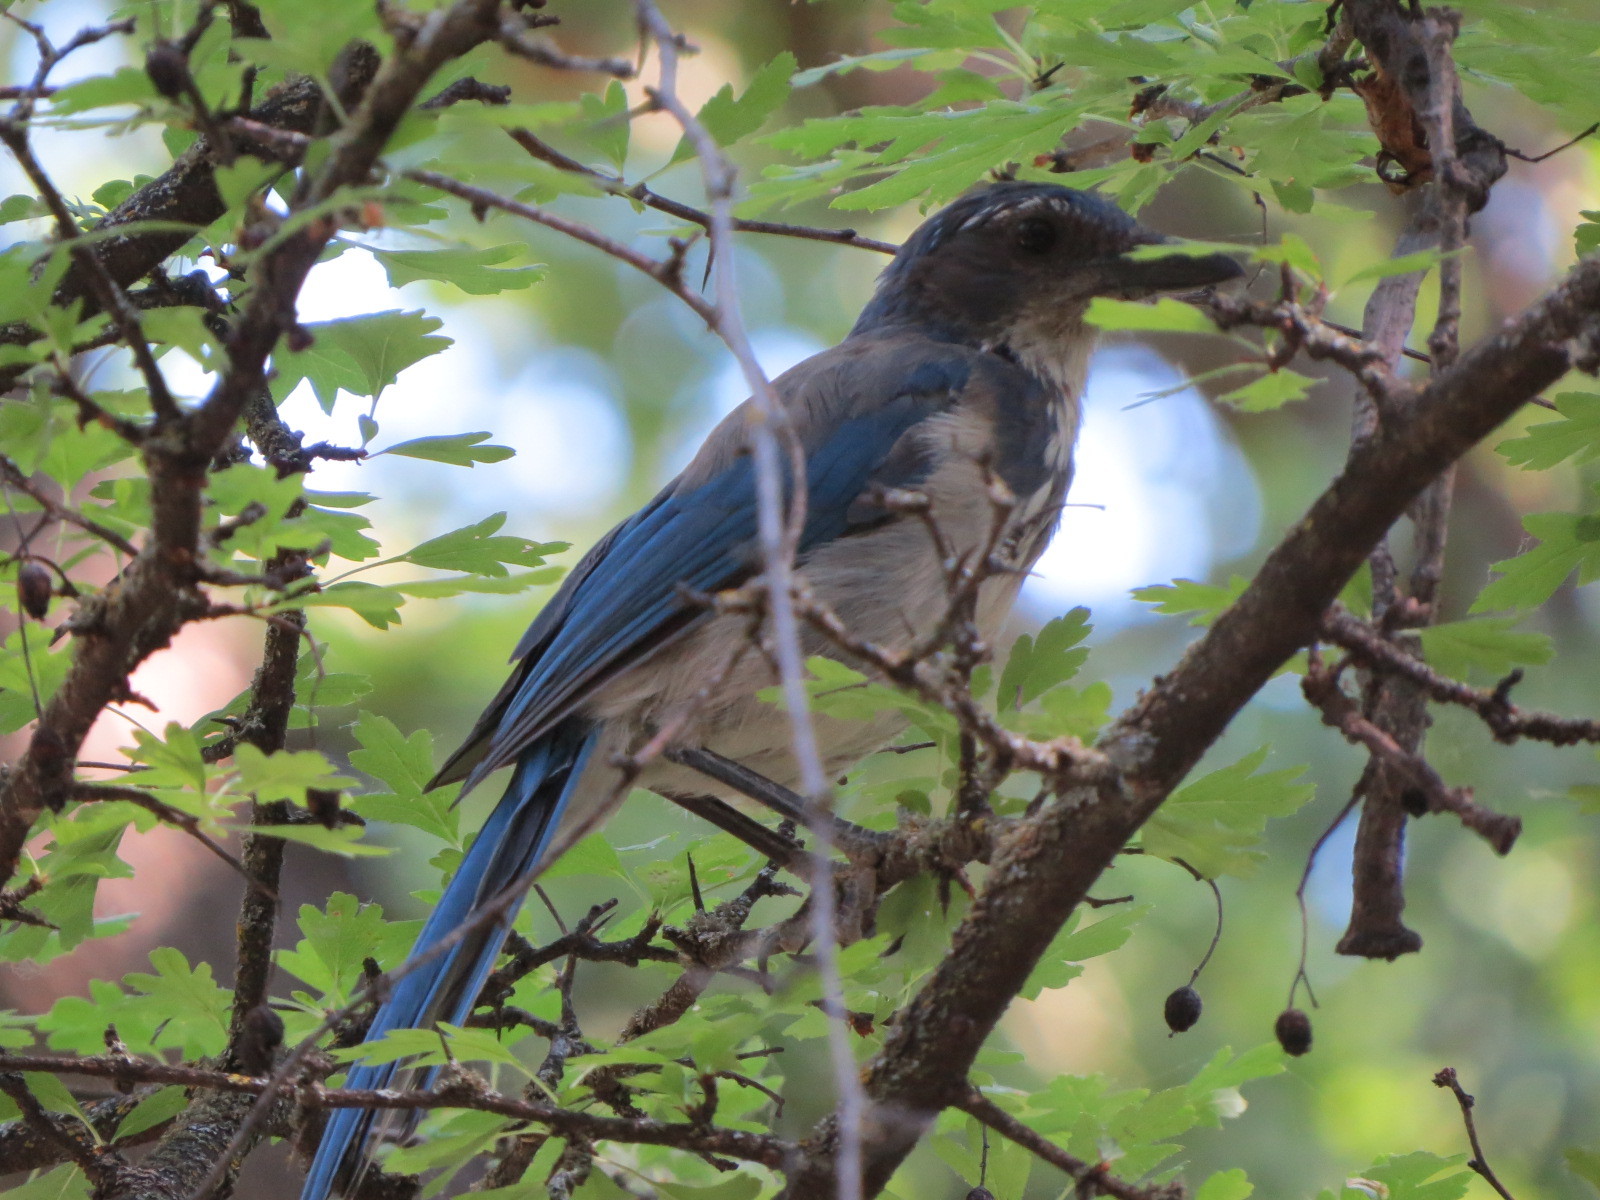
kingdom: Animalia
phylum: Chordata
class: Aves
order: Passeriformes
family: Corvidae
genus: Aphelocoma
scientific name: Aphelocoma californica
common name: California scrub-jay
